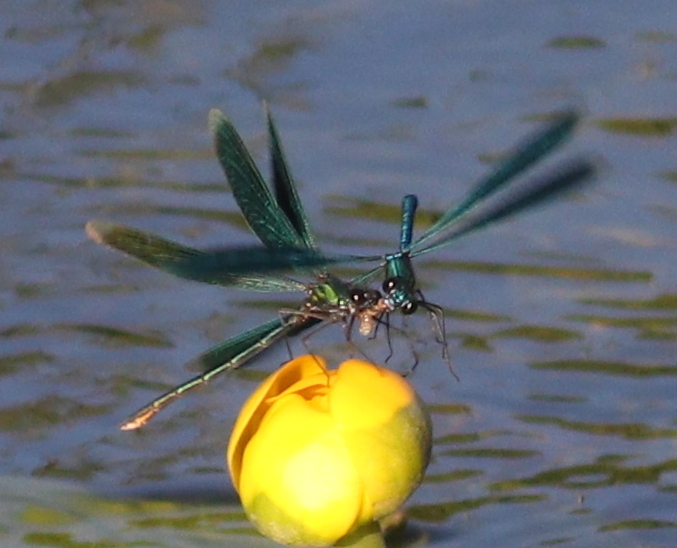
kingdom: Animalia
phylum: Arthropoda
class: Insecta
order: Odonata
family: Calopterygidae
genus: Calopteryx
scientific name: Calopteryx splendens
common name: Banded demoiselle
